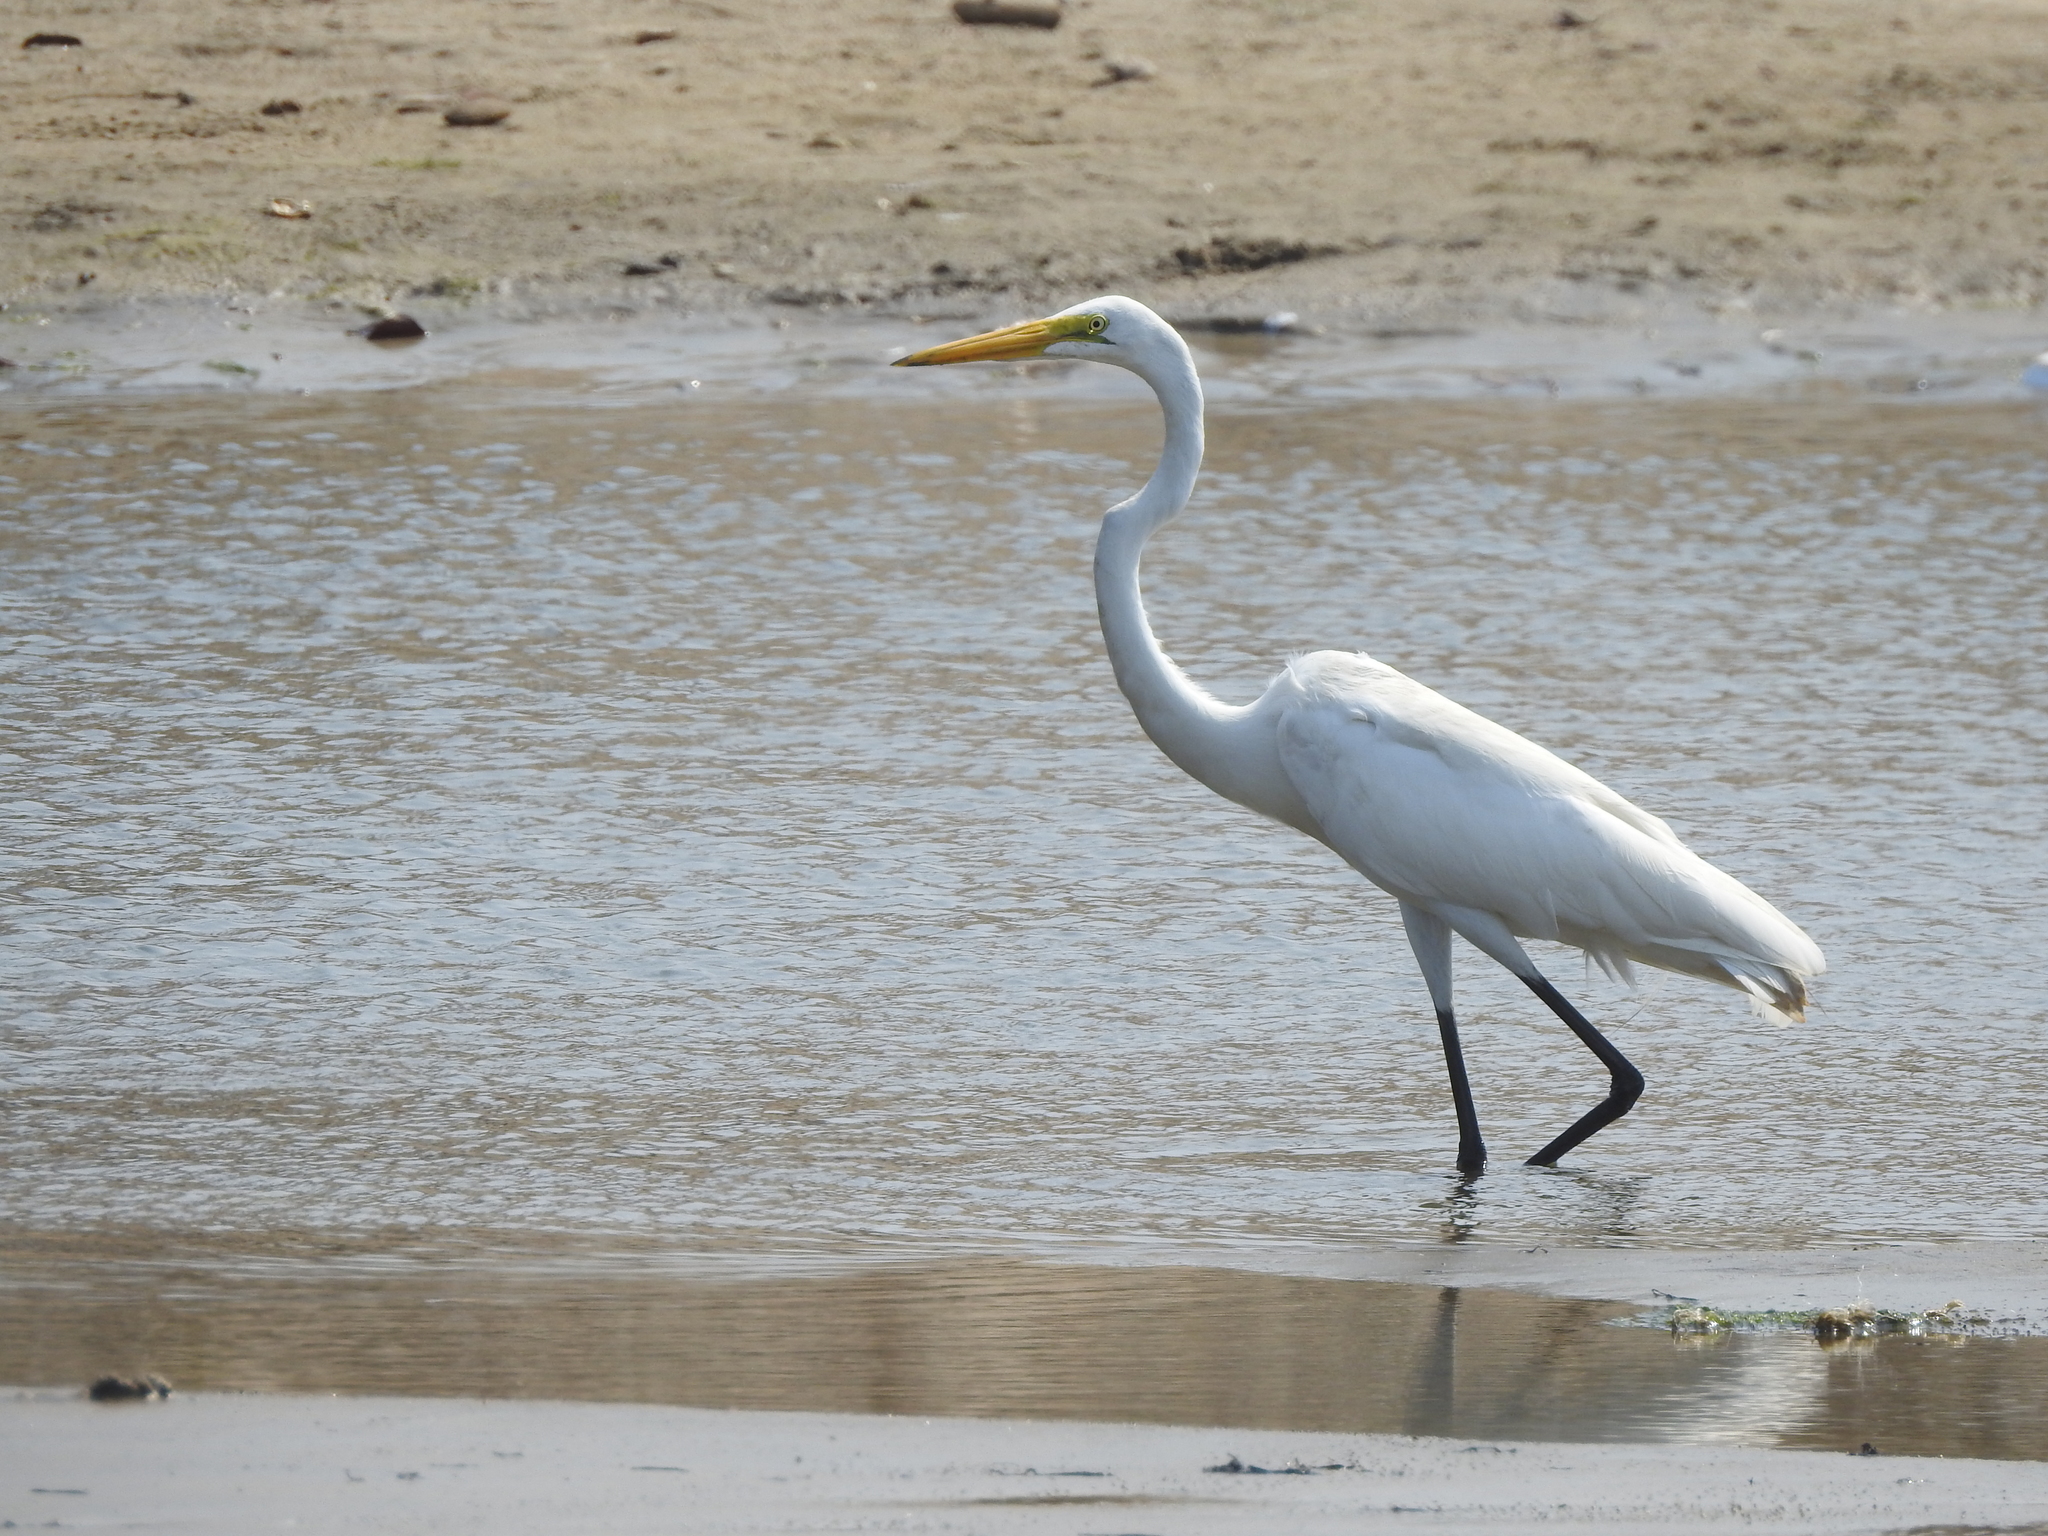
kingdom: Animalia
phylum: Chordata
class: Aves
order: Pelecaniformes
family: Ardeidae
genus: Ardea
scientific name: Ardea alba
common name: Great egret
